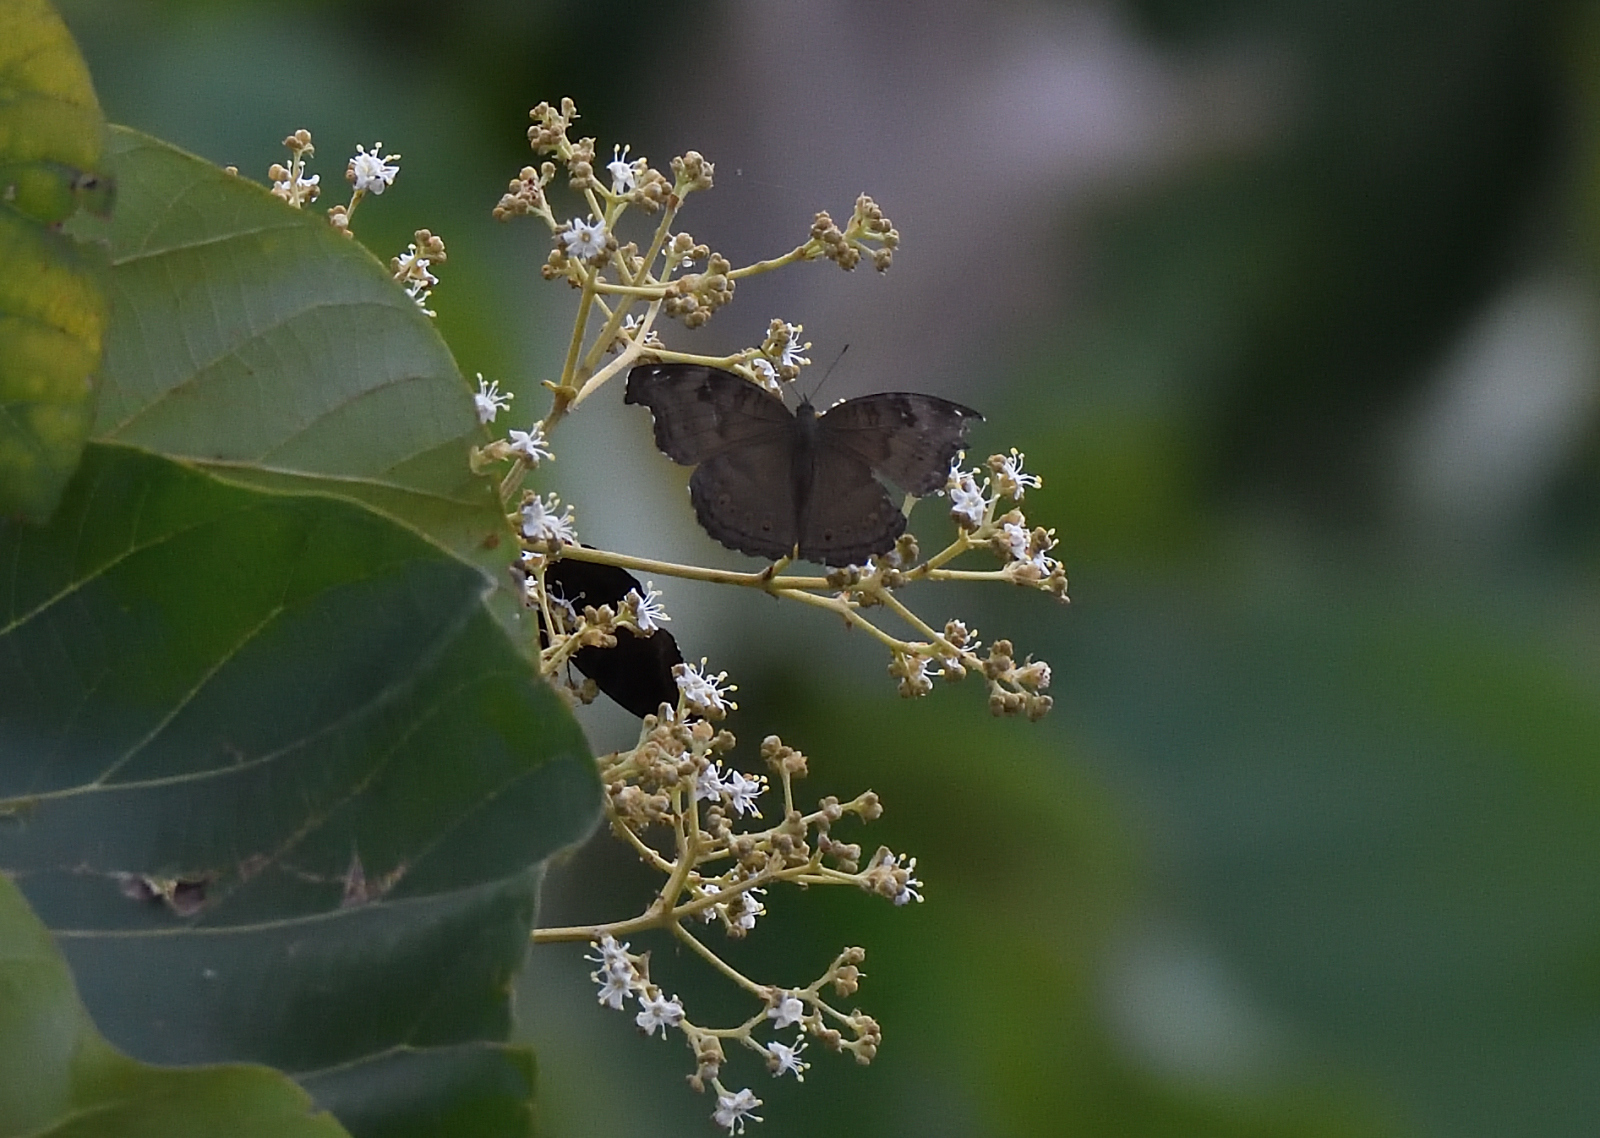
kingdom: Animalia
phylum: Arthropoda
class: Insecta
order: Lepidoptera
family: Nymphalidae
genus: Junonia
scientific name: Junonia iphita
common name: Chocolate pansy
